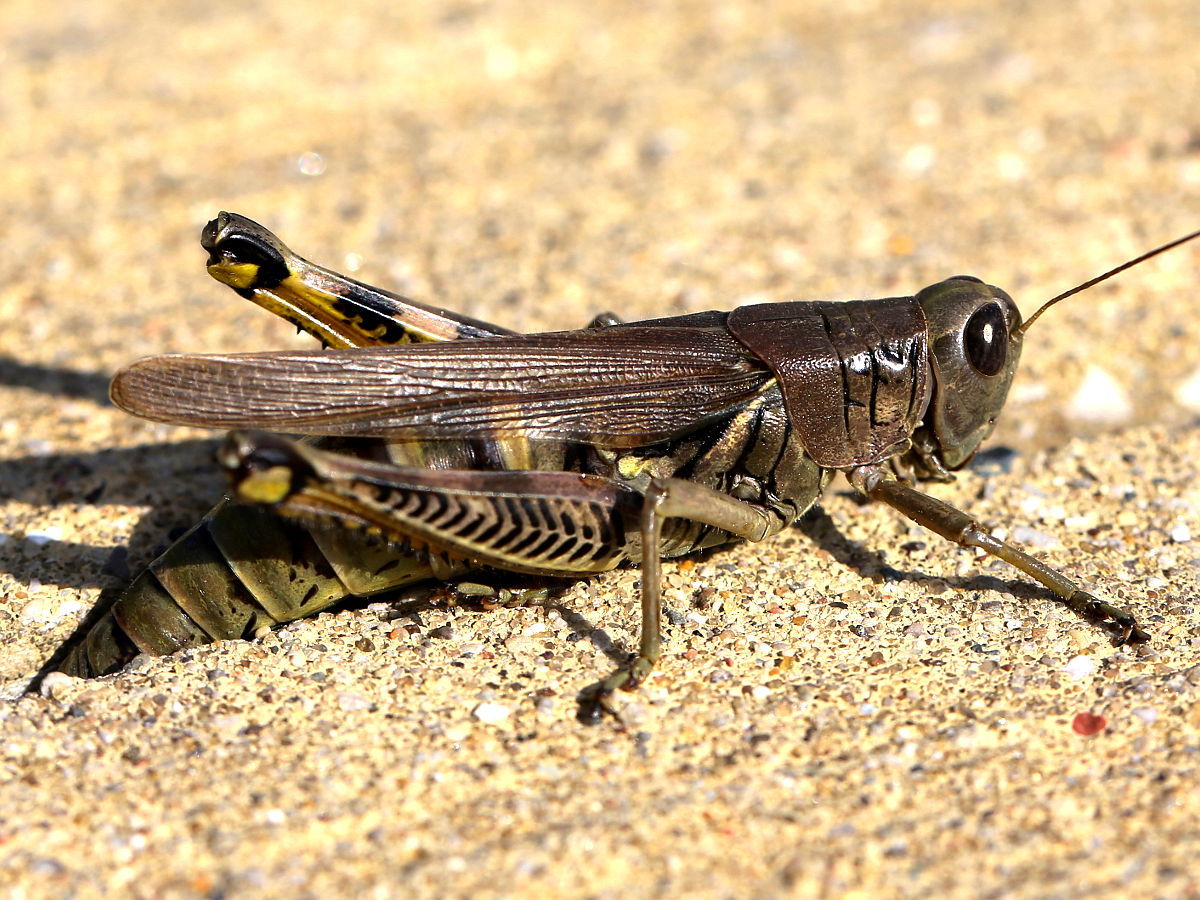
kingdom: Animalia
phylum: Arthropoda
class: Insecta
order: Orthoptera
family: Acrididae
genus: Melanoplus
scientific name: Melanoplus differentialis
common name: Differential grasshopper
